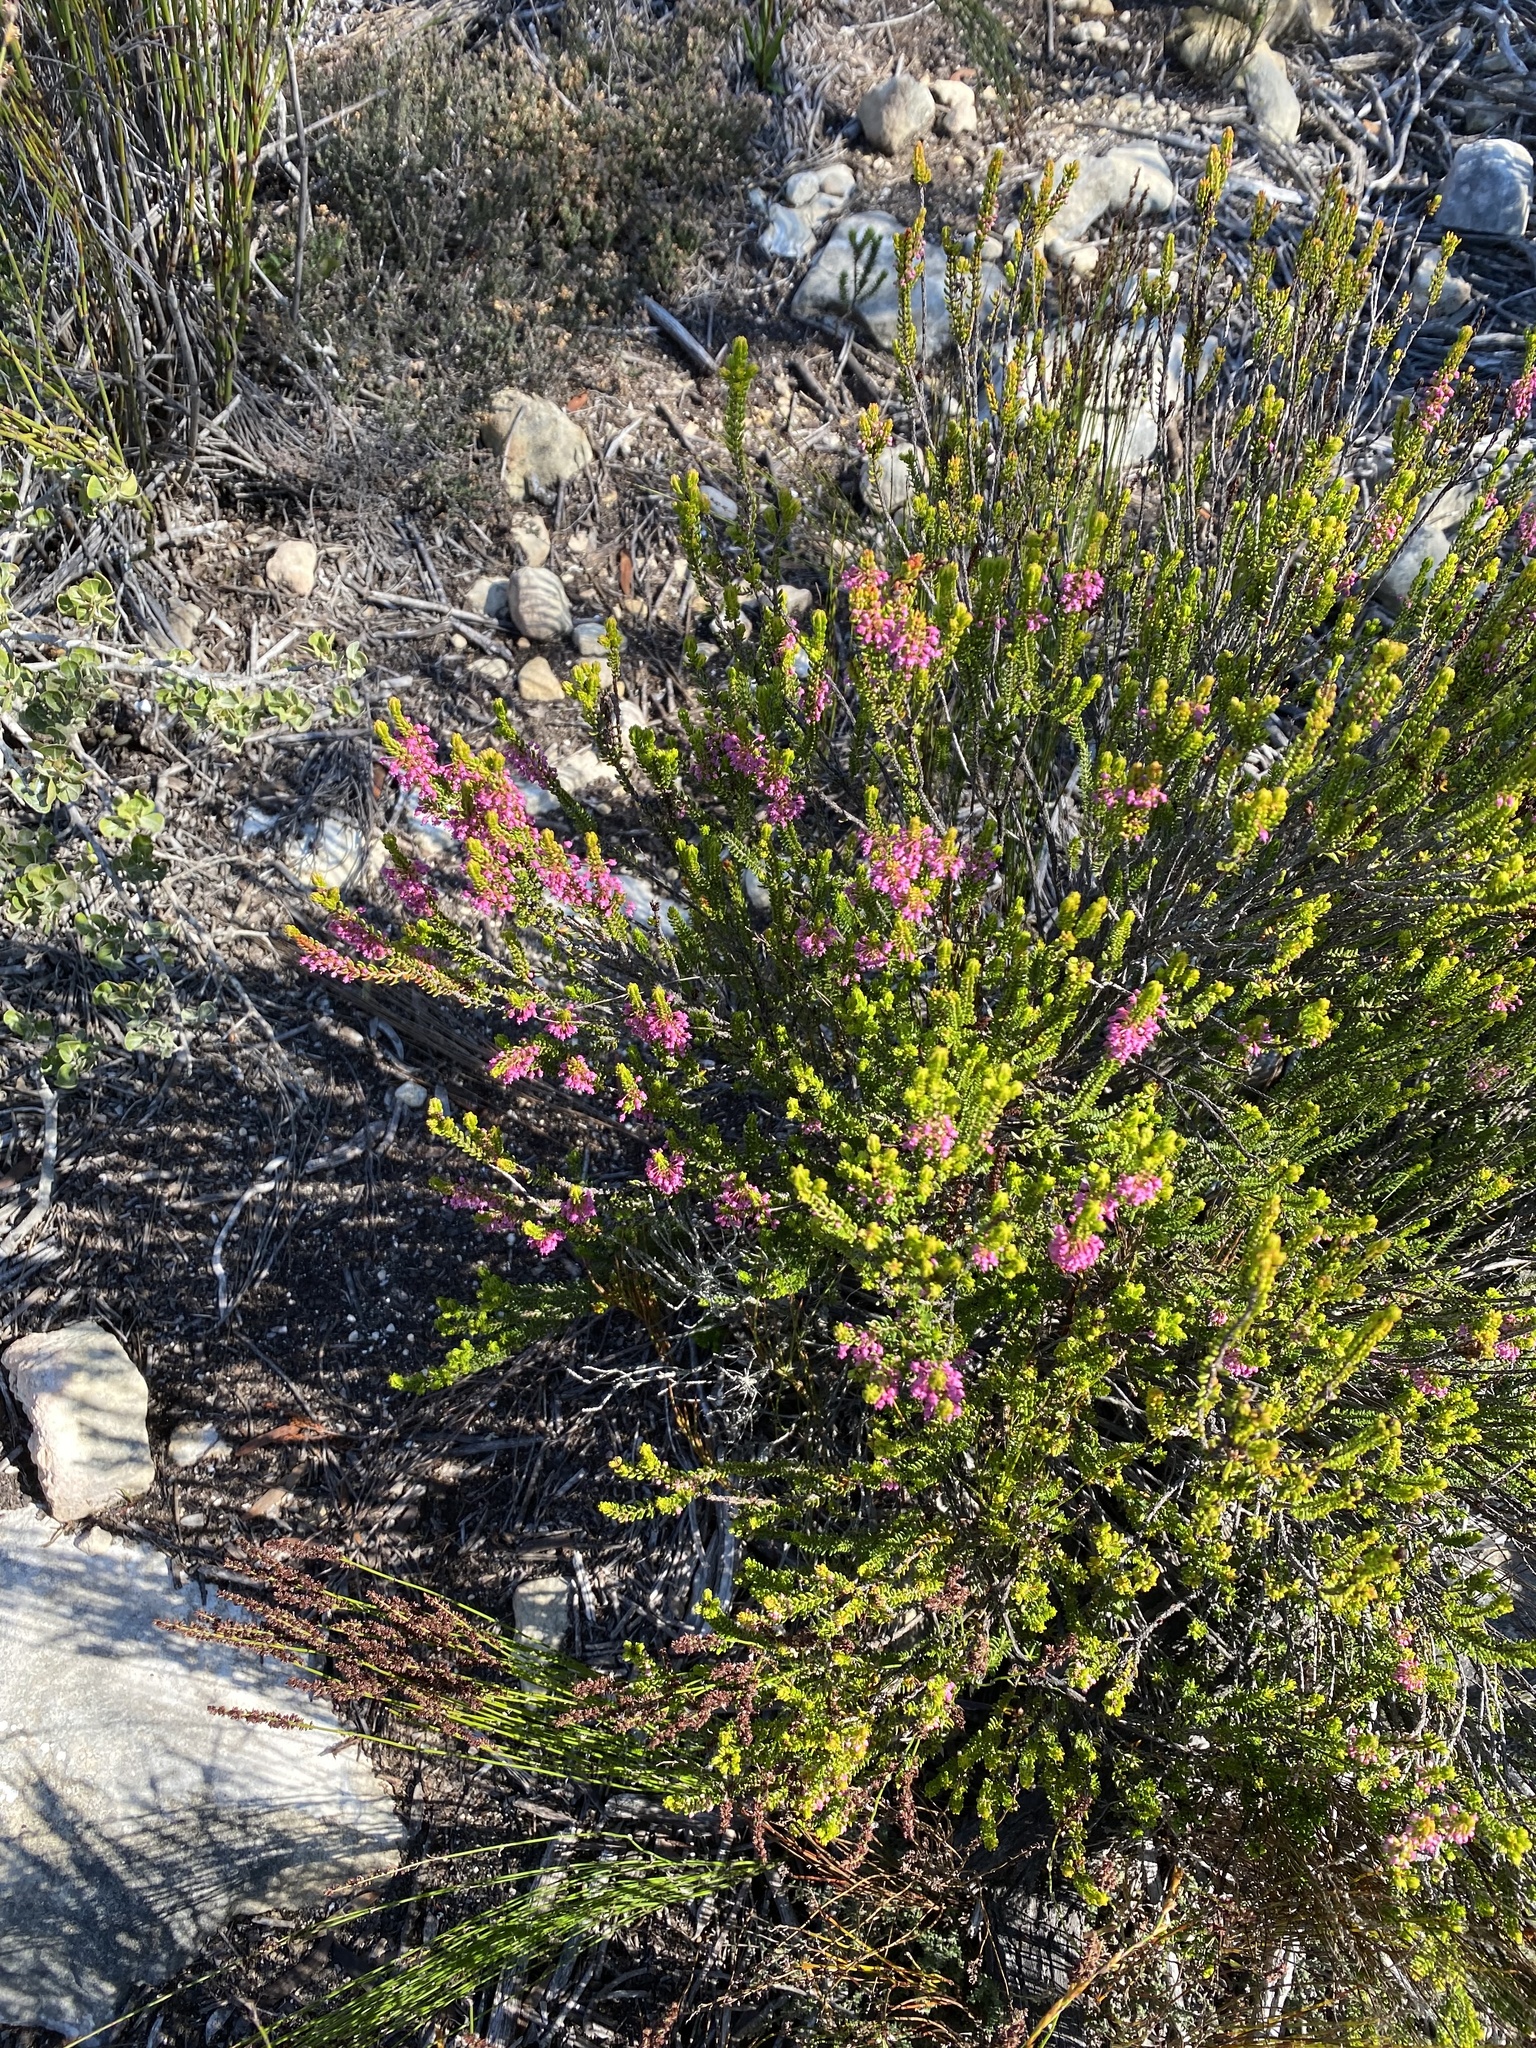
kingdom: Plantae
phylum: Tracheophyta
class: Magnoliopsida
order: Ericales
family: Ericaceae
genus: Erica
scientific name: Erica curtophylla
